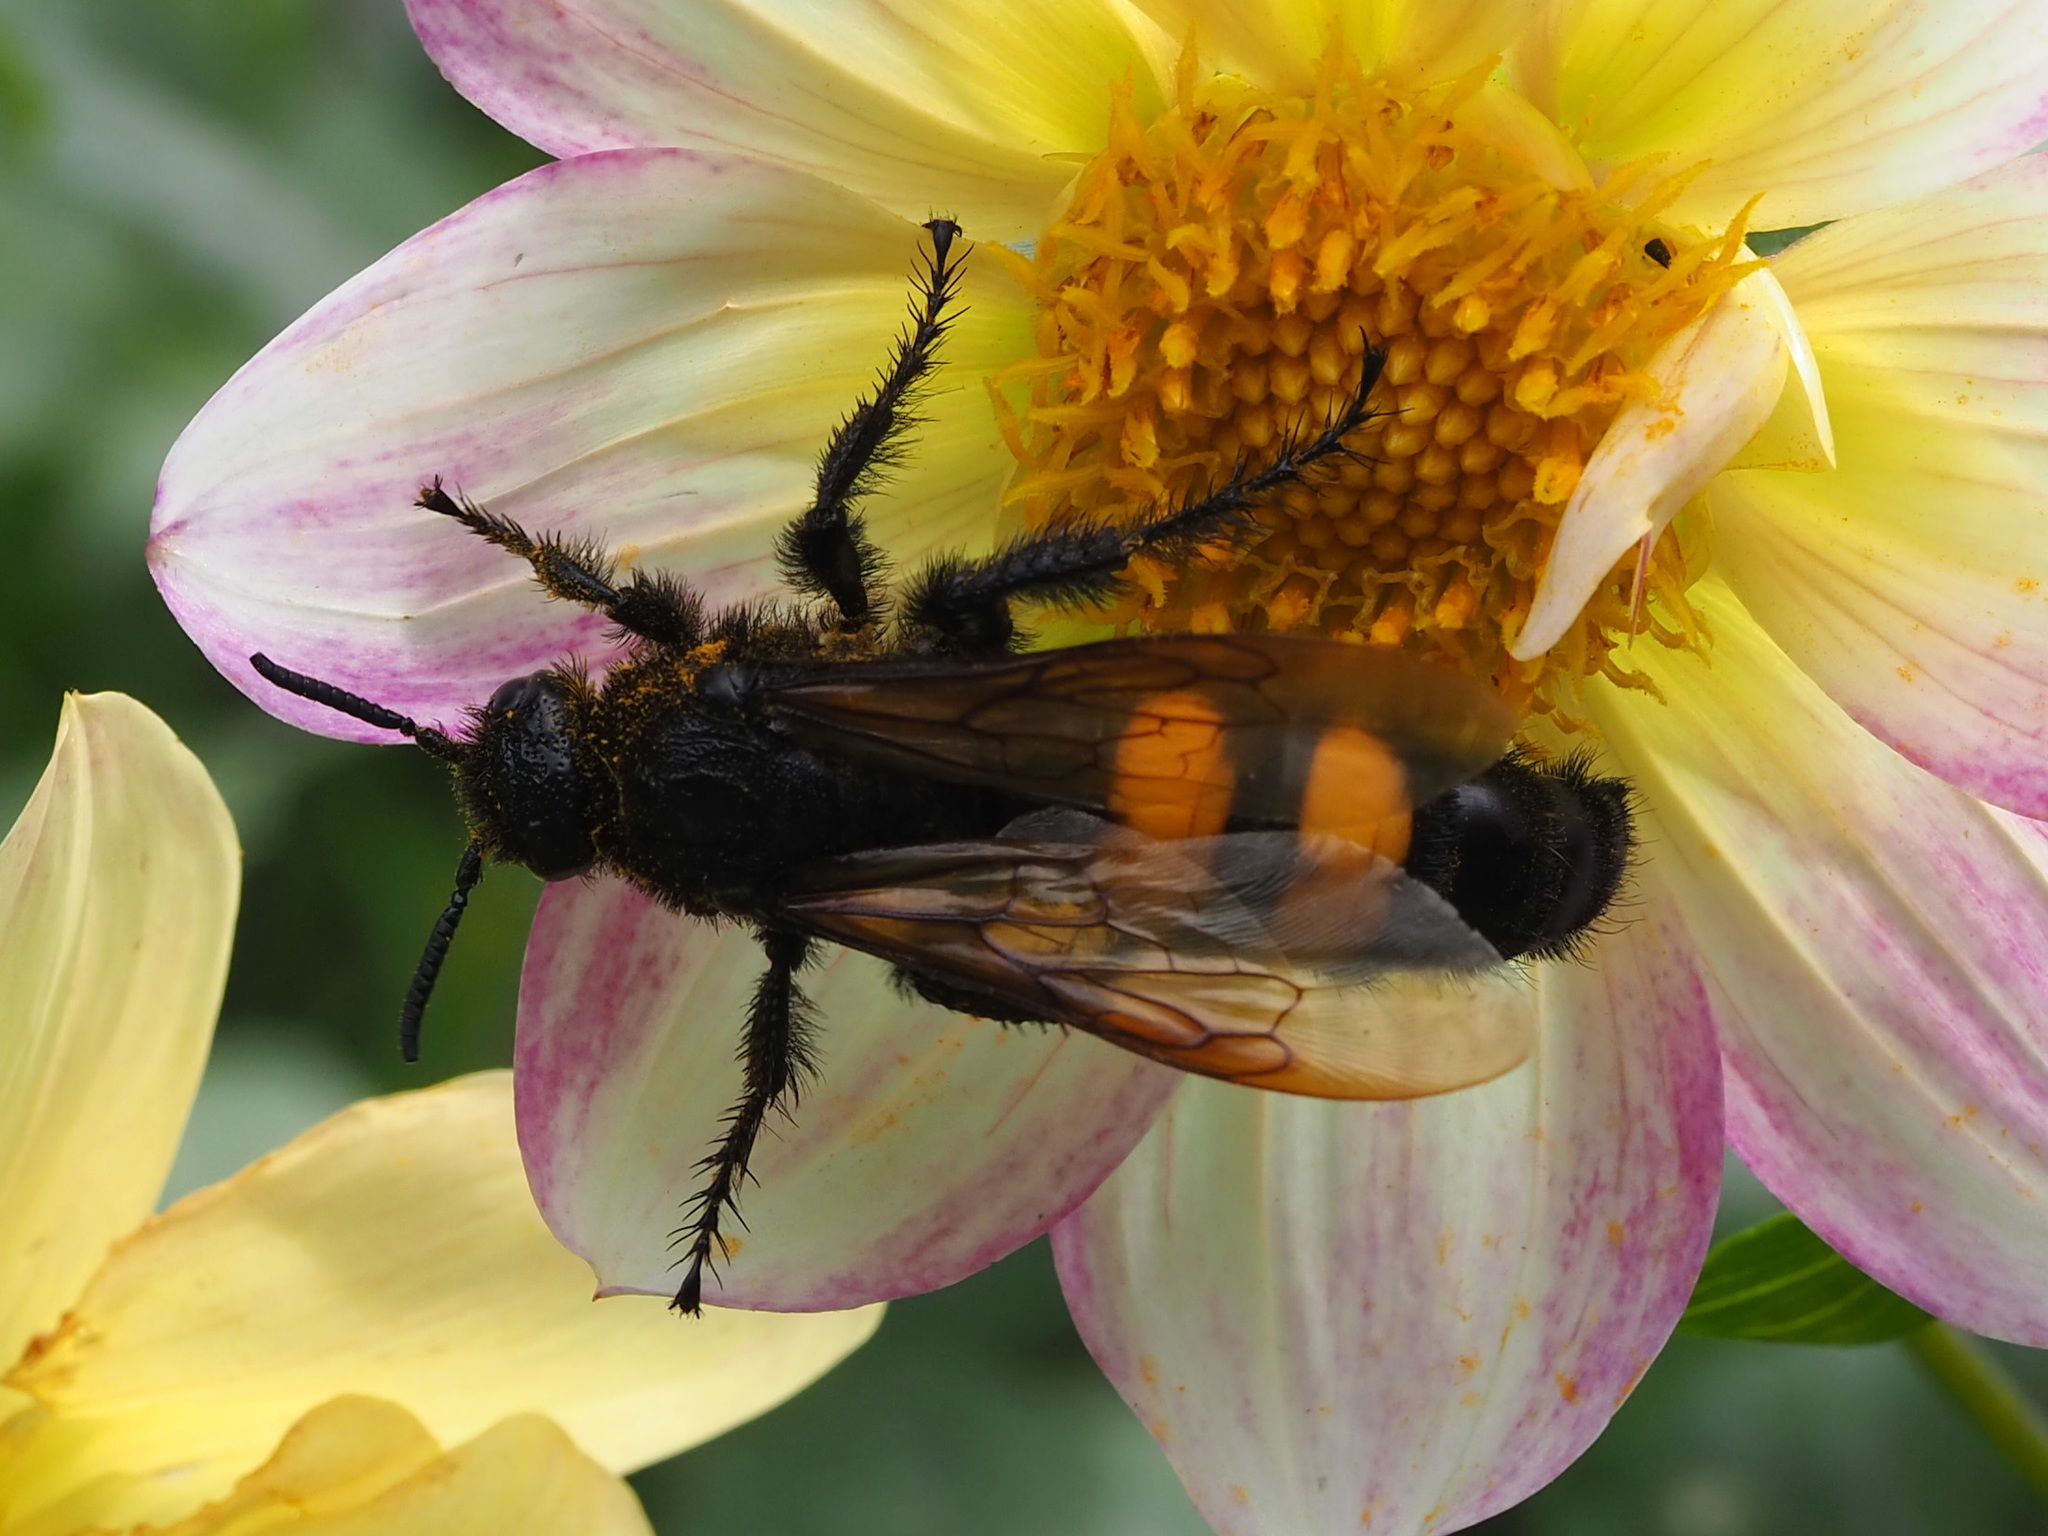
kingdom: Animalia
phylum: Arthropoda
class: Insecta
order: Hymenoptera
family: Scoliidae
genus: Pygodasis
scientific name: Pygodasis ephippium
